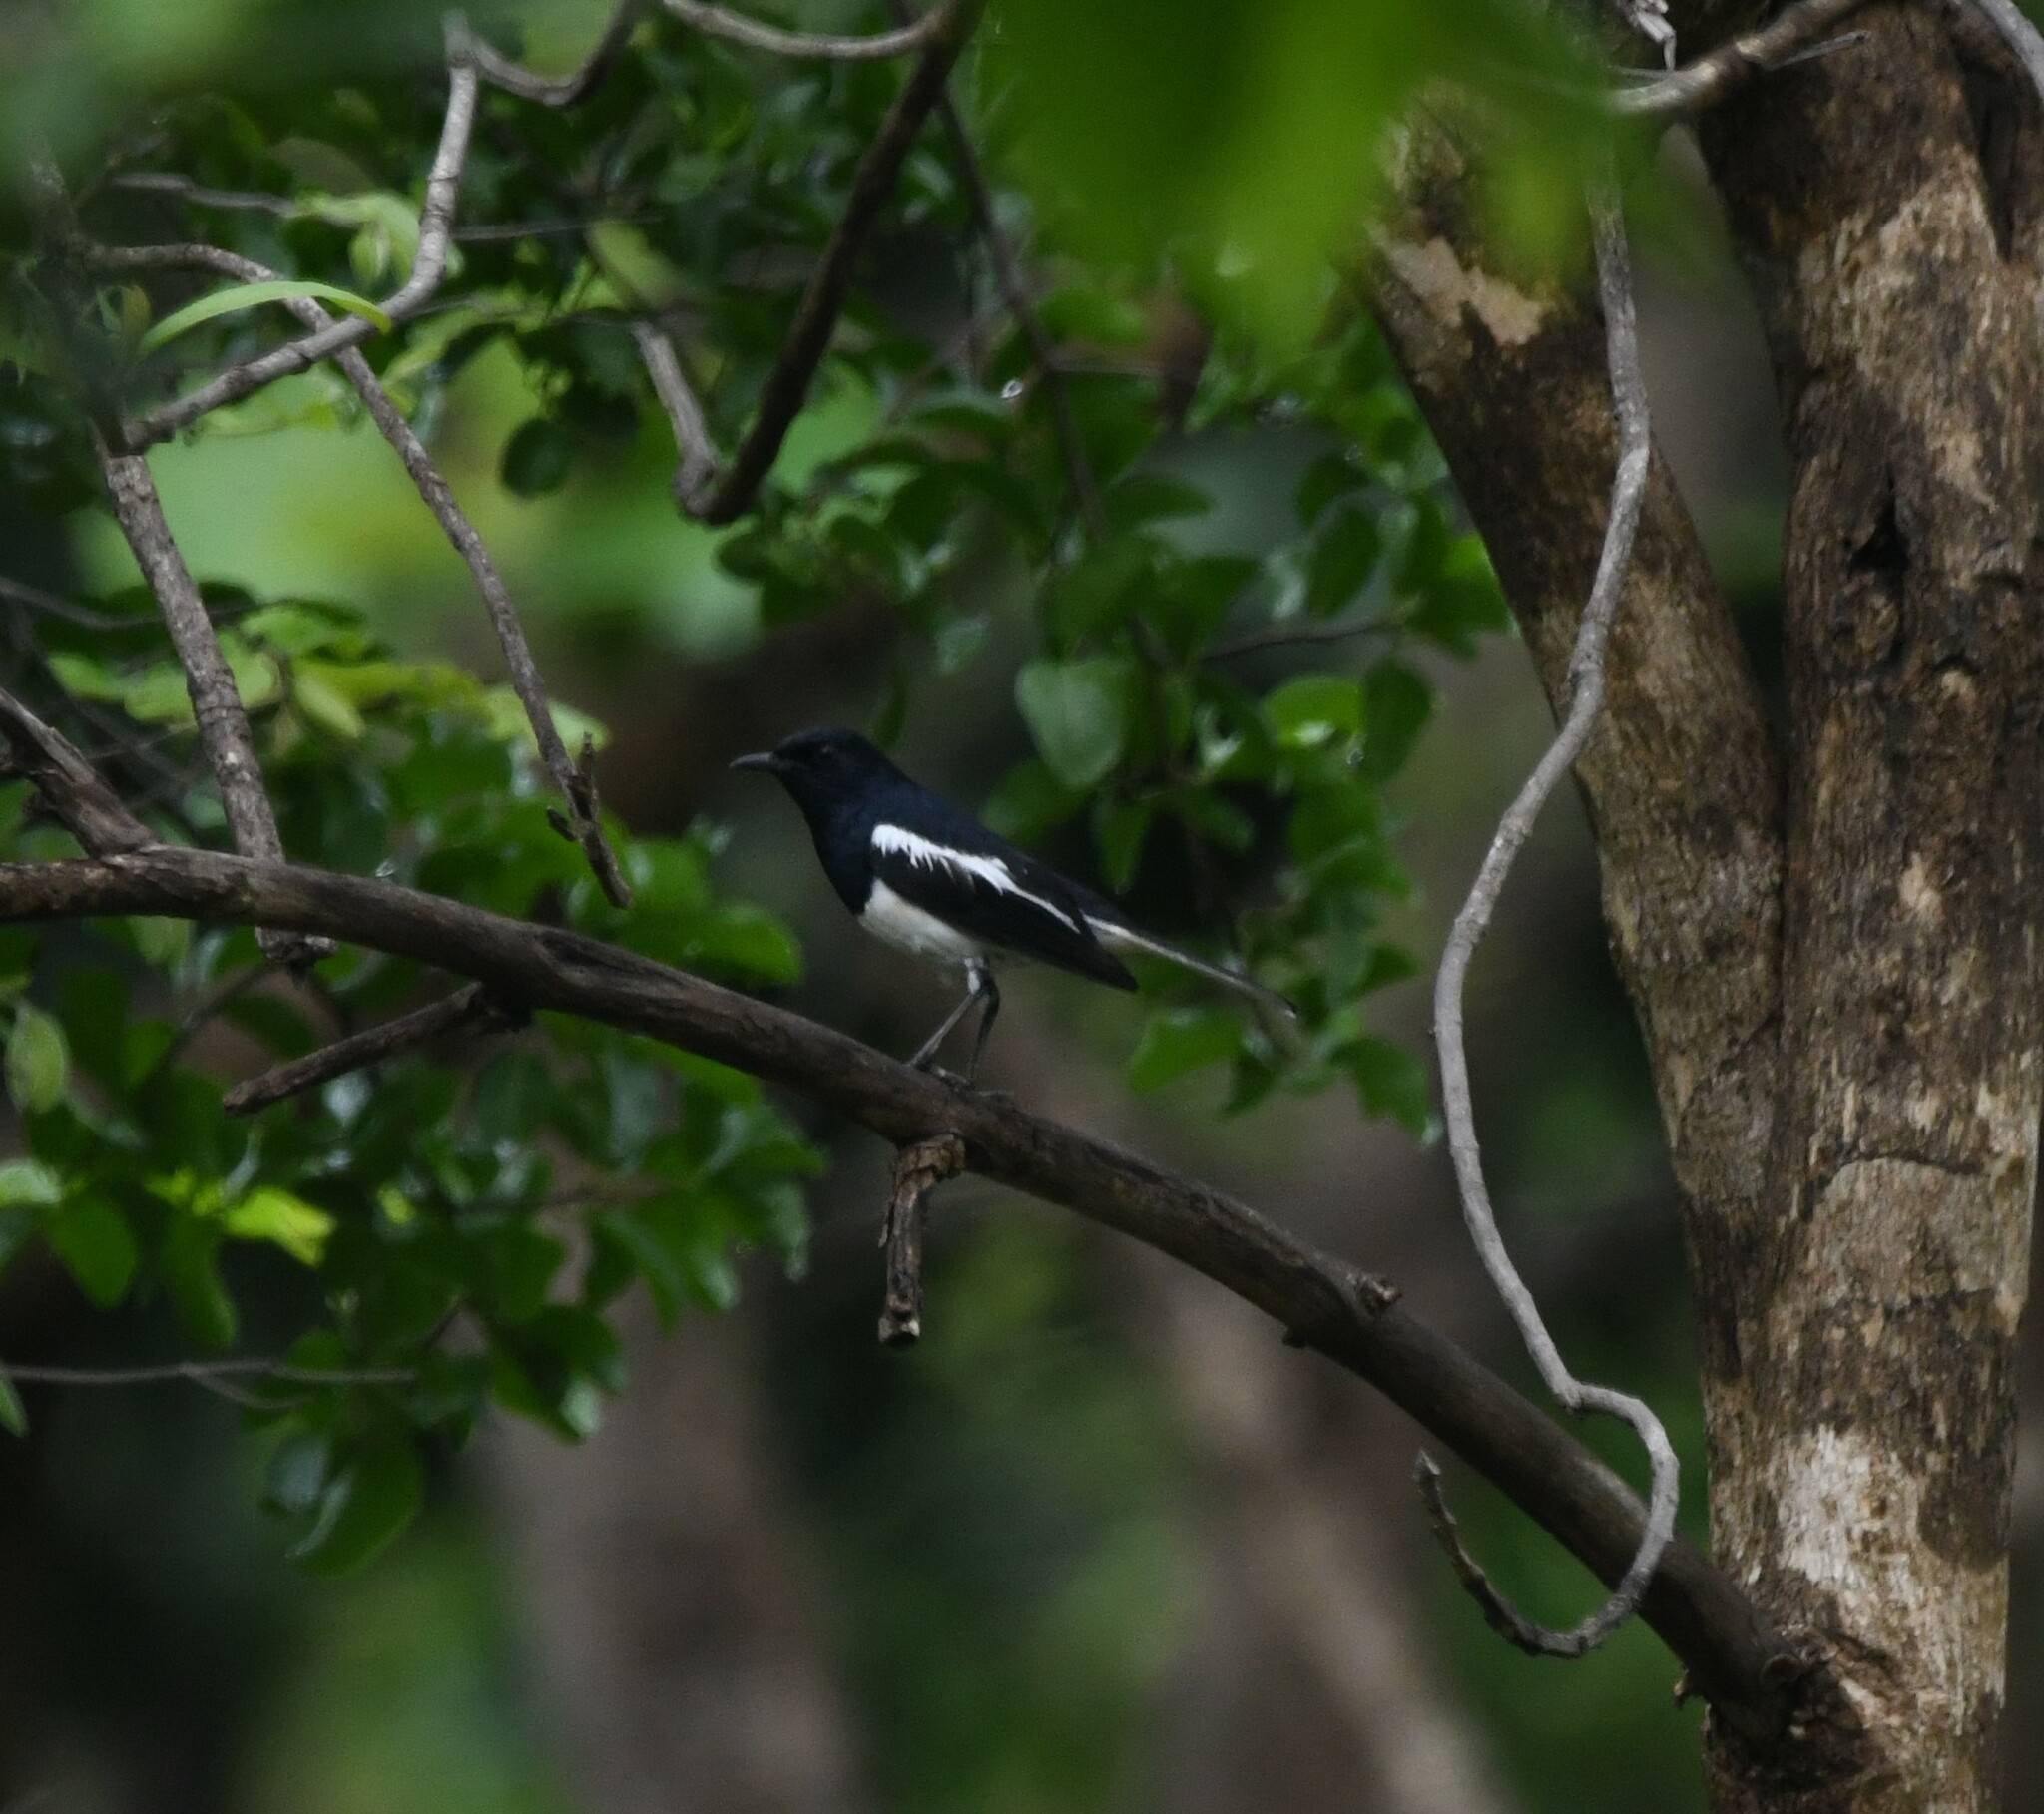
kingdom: Animalia
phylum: Chordata
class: Aves
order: Passeriformes
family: Muscicapidae
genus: Copsychus
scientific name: Copsychus saularis
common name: Oriental magpie-robin
